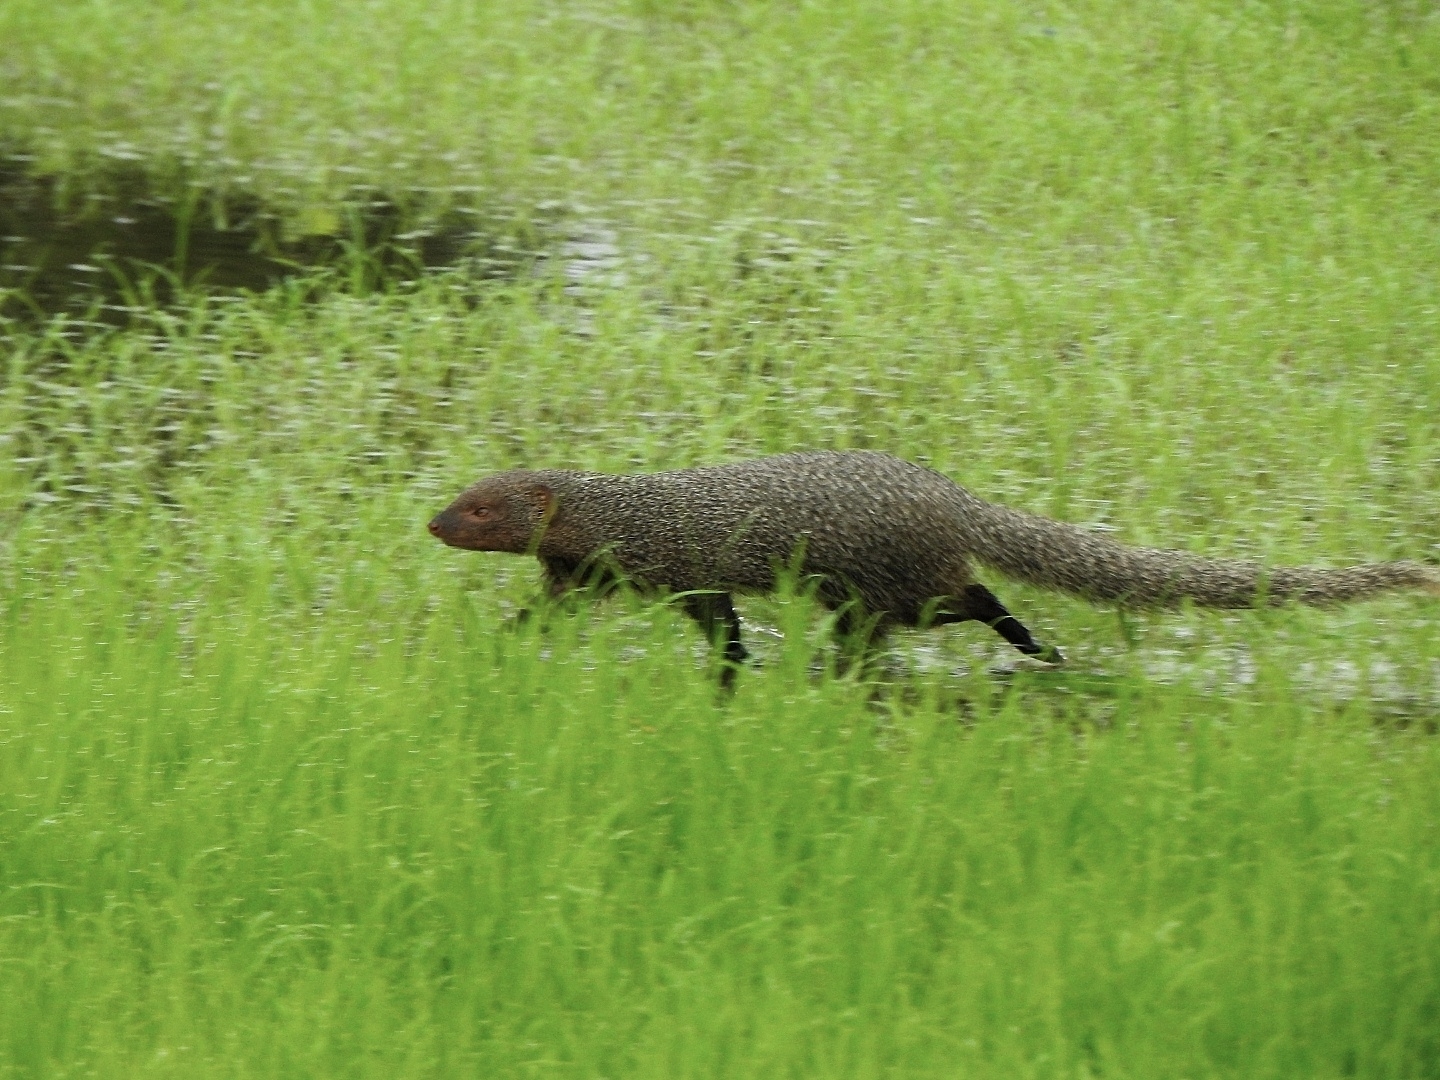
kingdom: Animalia
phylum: Chordata
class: Mammalia
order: Carnivora
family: Herpestidae
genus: Herpestes
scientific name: Herpestes edwardsi
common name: Indian gray mongoose
